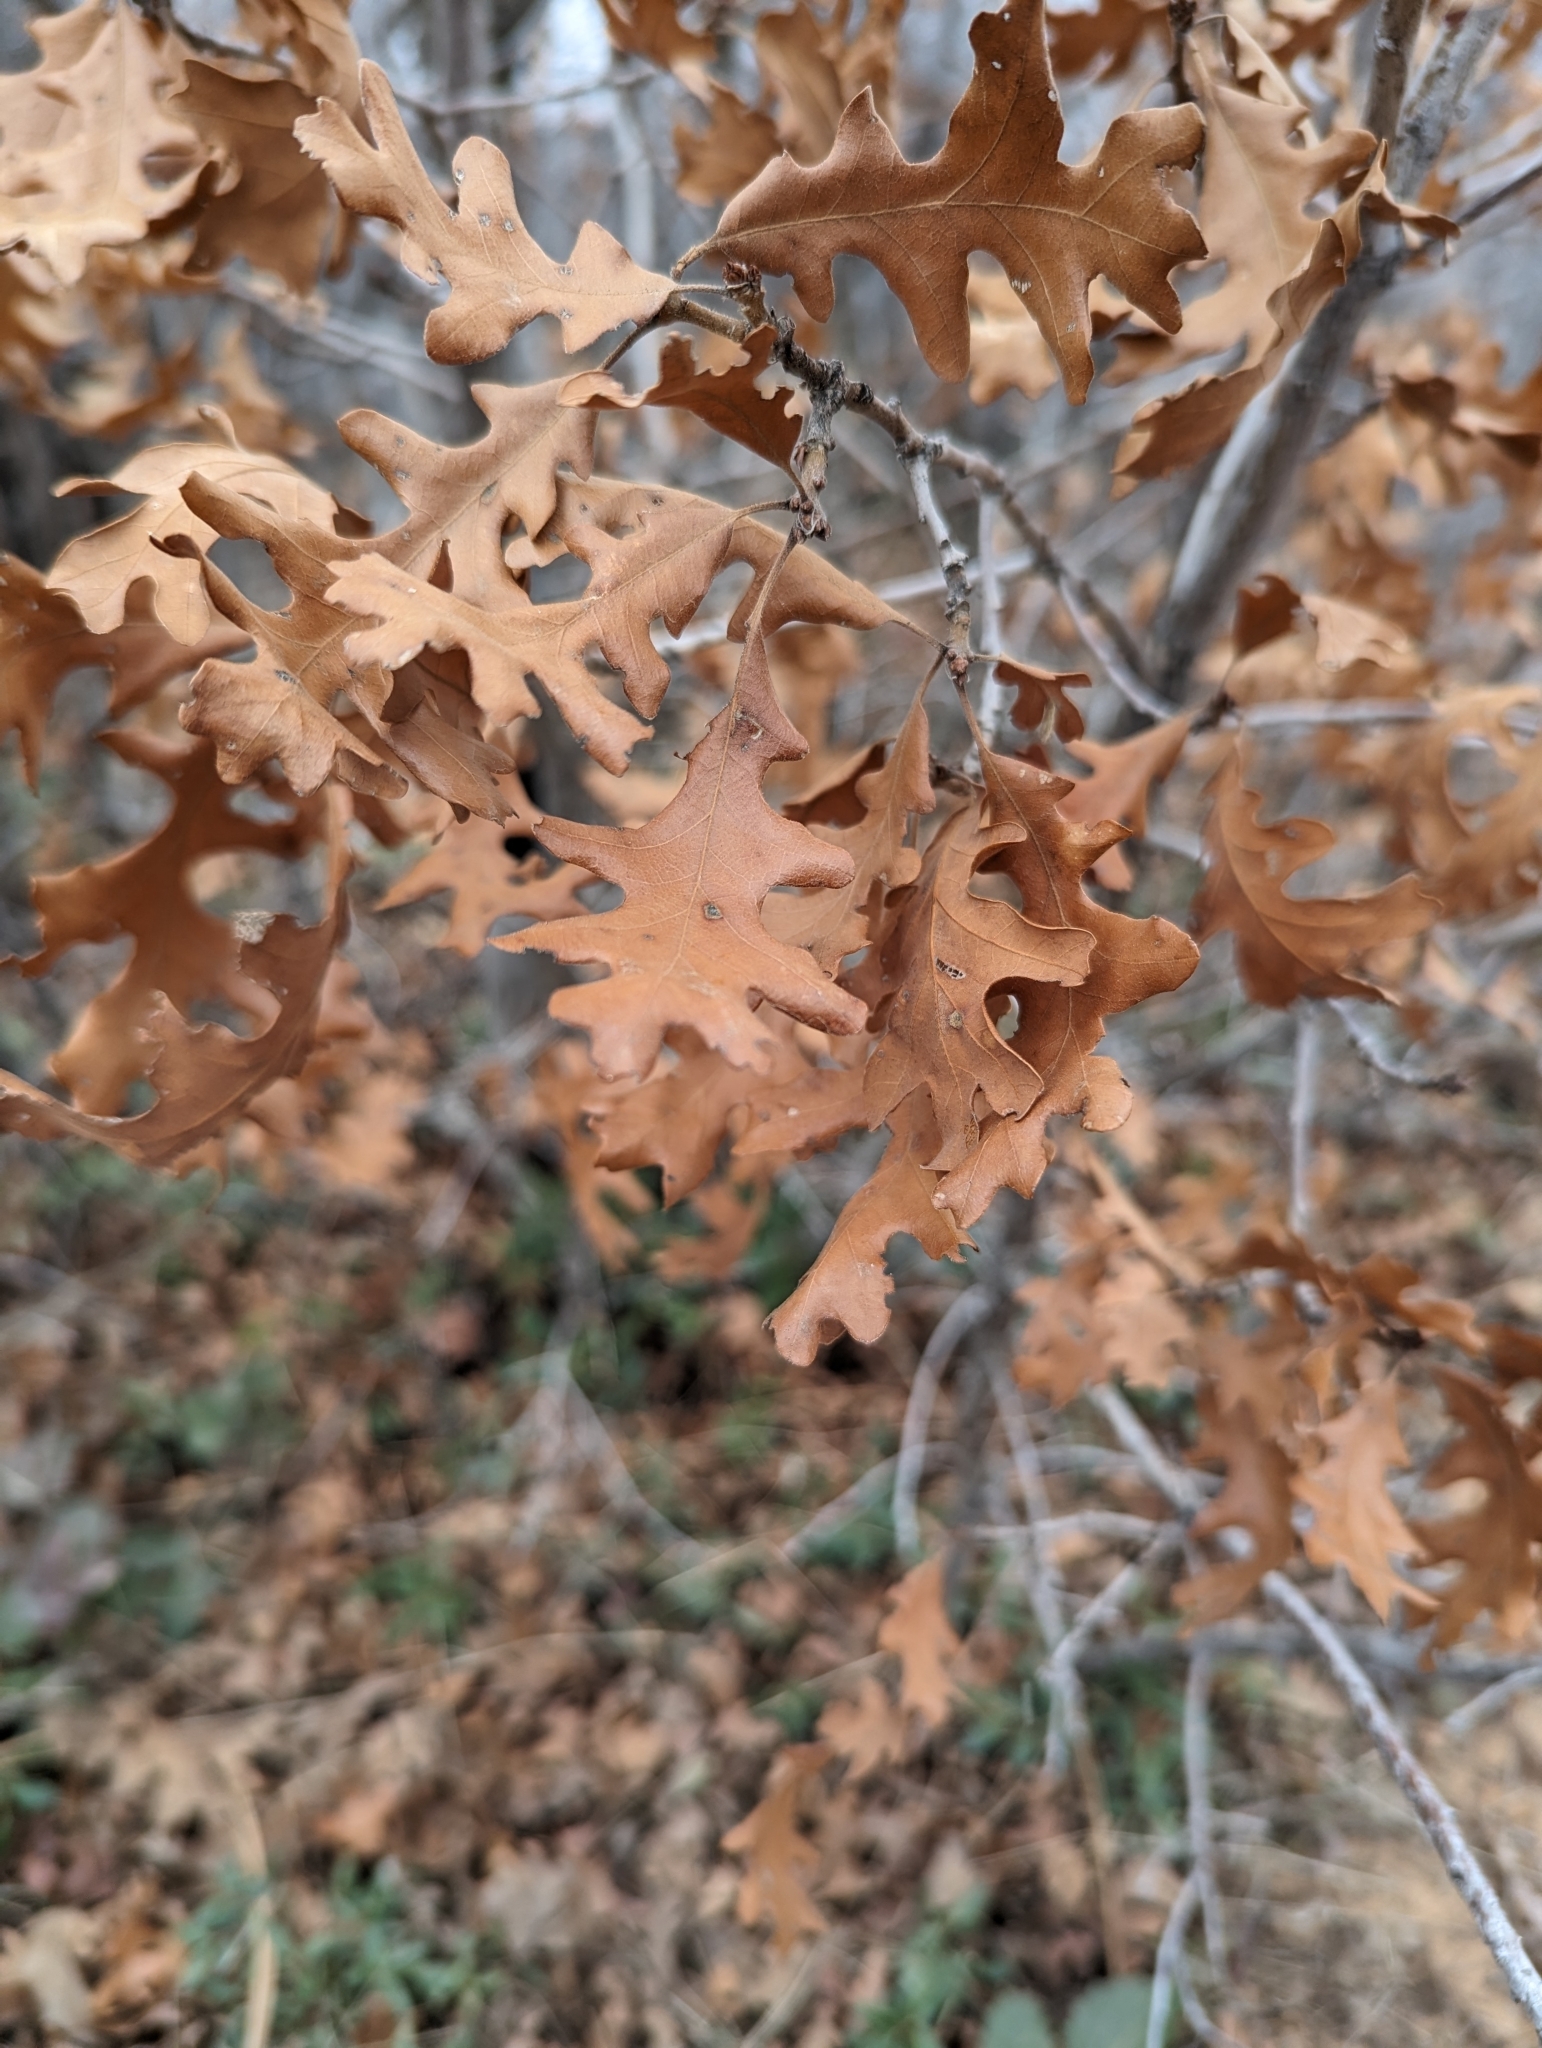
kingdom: Plantae
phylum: Tracheophyta
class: Magnoliopsida
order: Fagales
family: Fagaceae
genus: Quercus
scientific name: Quercus gambelii
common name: Gambel oak
